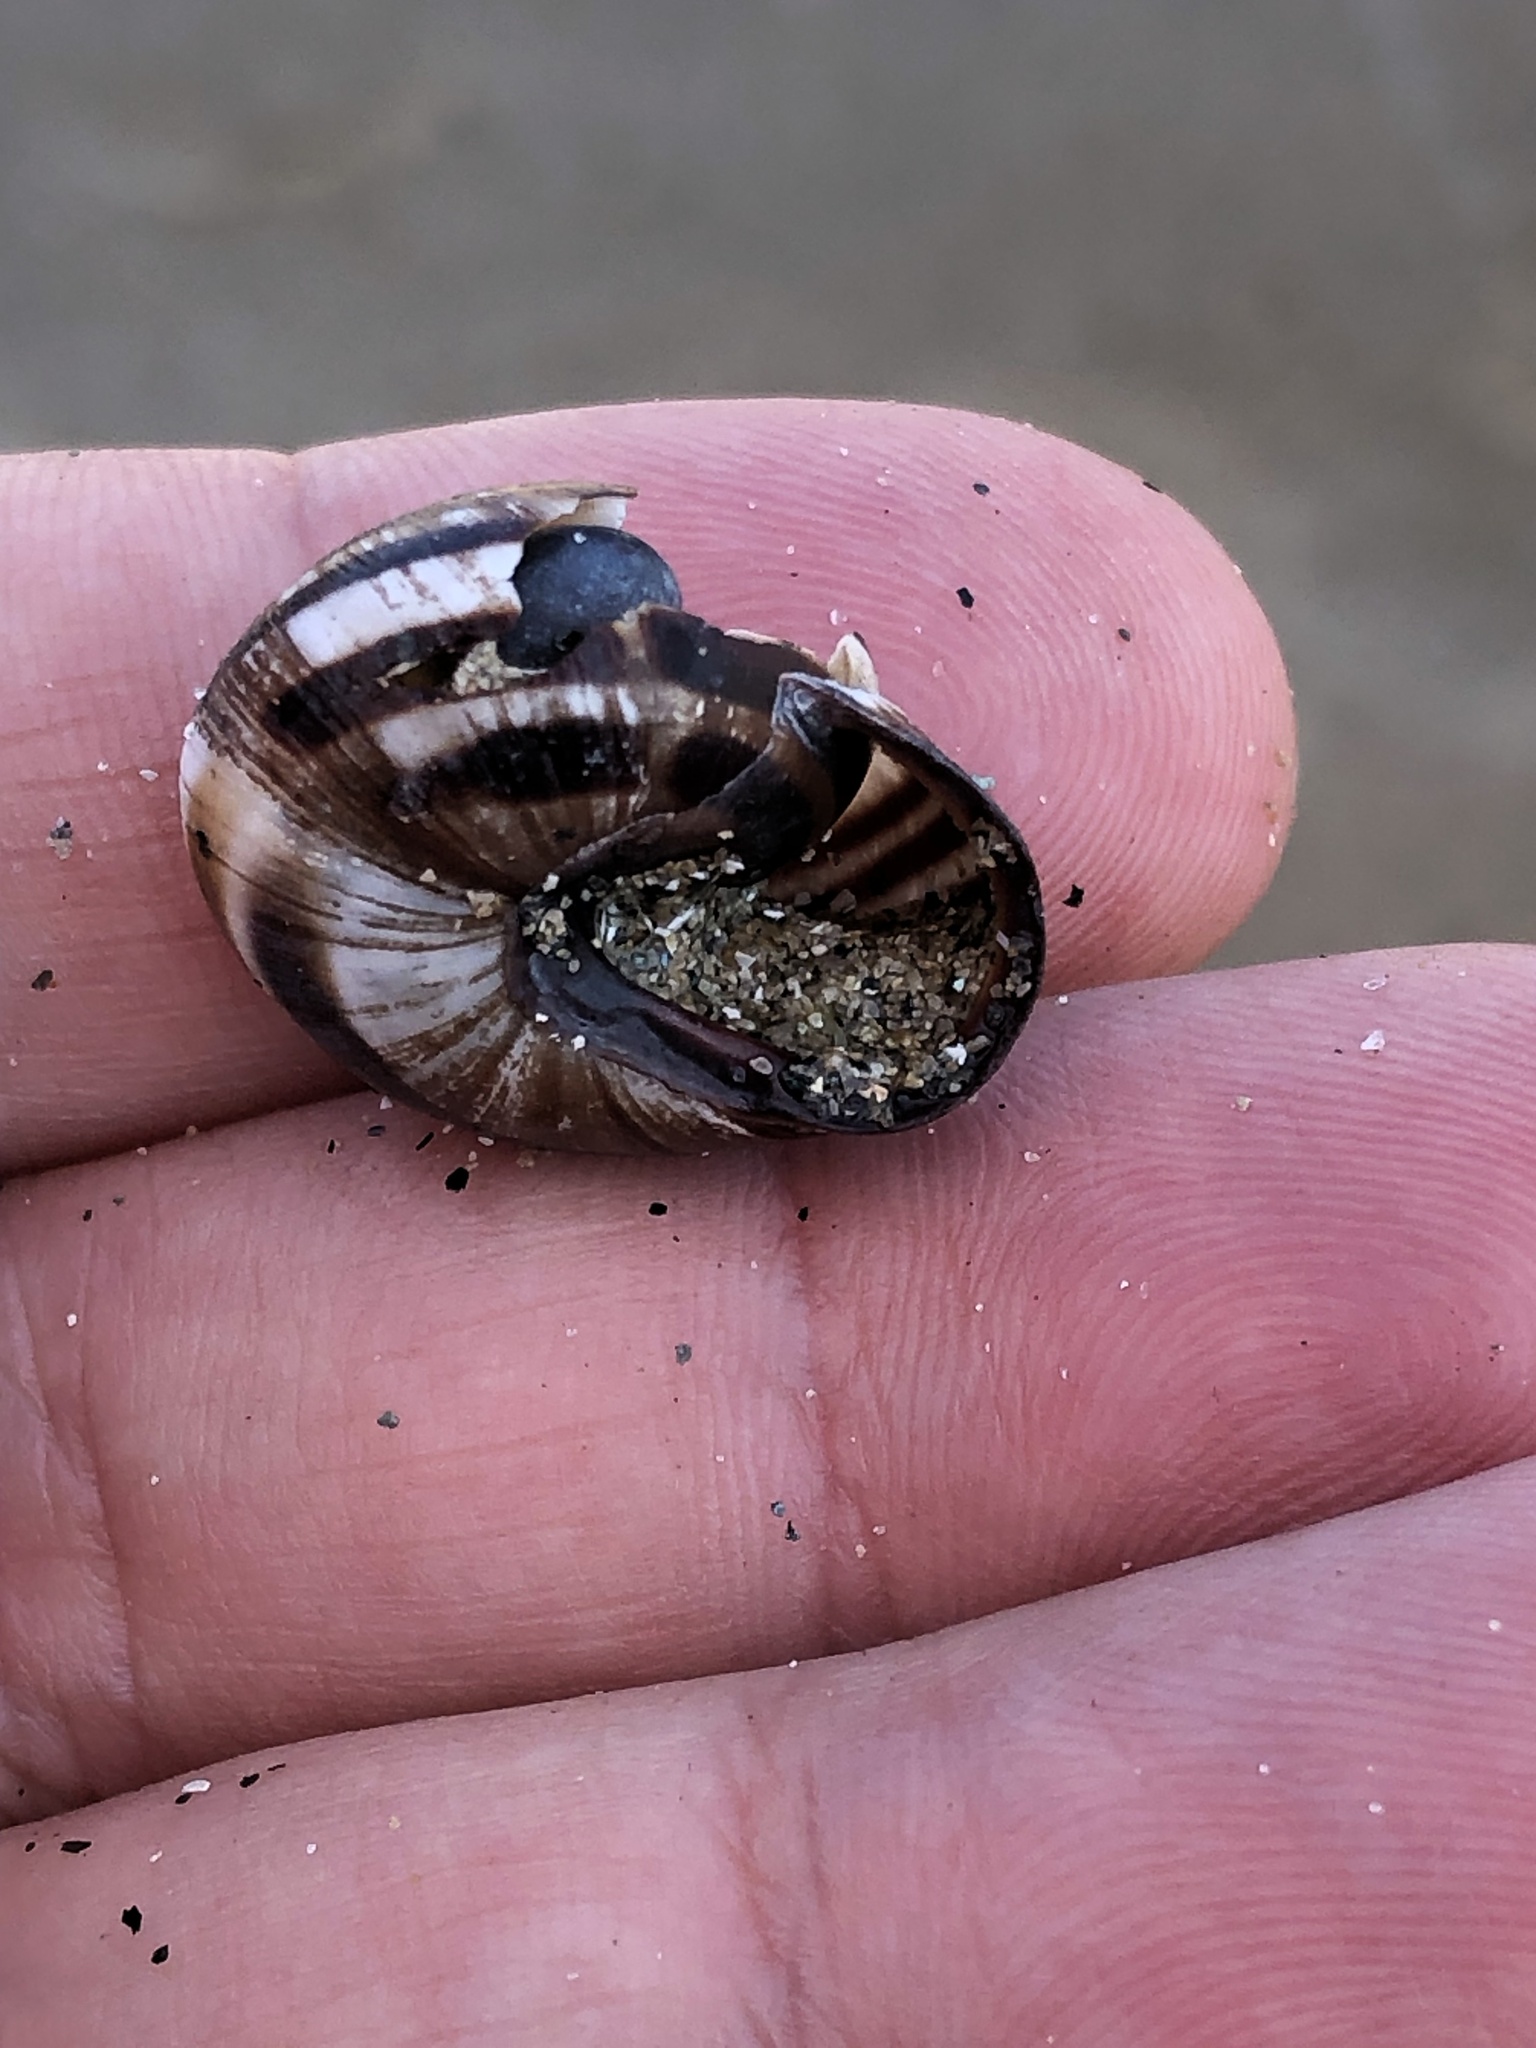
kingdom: Animalia
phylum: Mollusca
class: Gastropoda
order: Stylommatophora
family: Helicidae
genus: Cepaea
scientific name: Cepaea nemoralis
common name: Grovesnail
